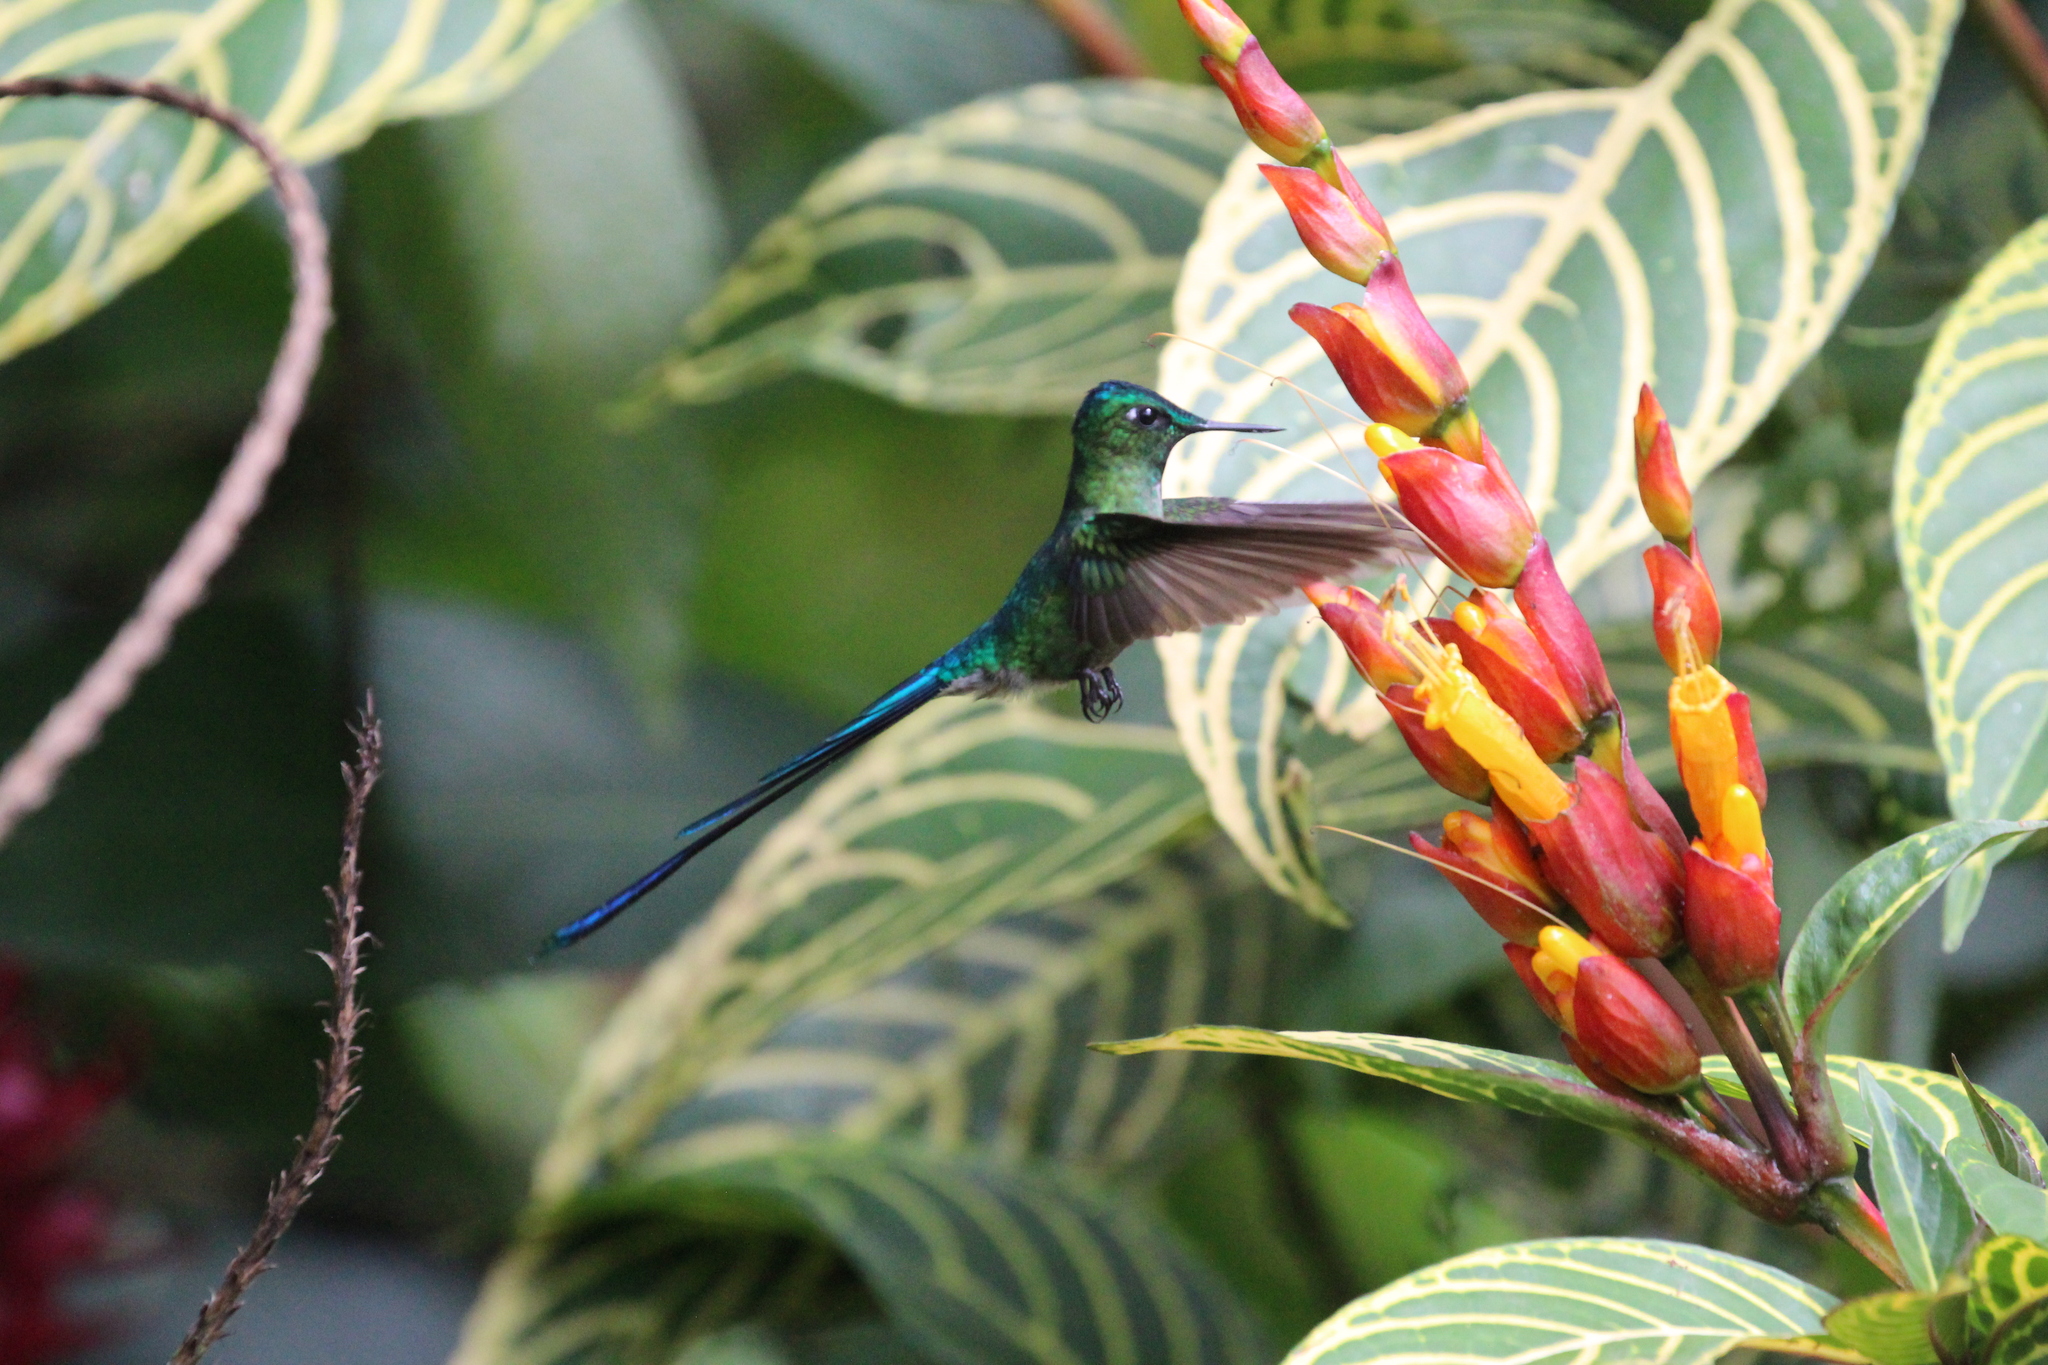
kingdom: Animalia
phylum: Chordata
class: Aves
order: Apodiformes
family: Trochilidae
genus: Aglaiocercus
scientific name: Aglaiocercus kingii
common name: Long-tailed sylph
